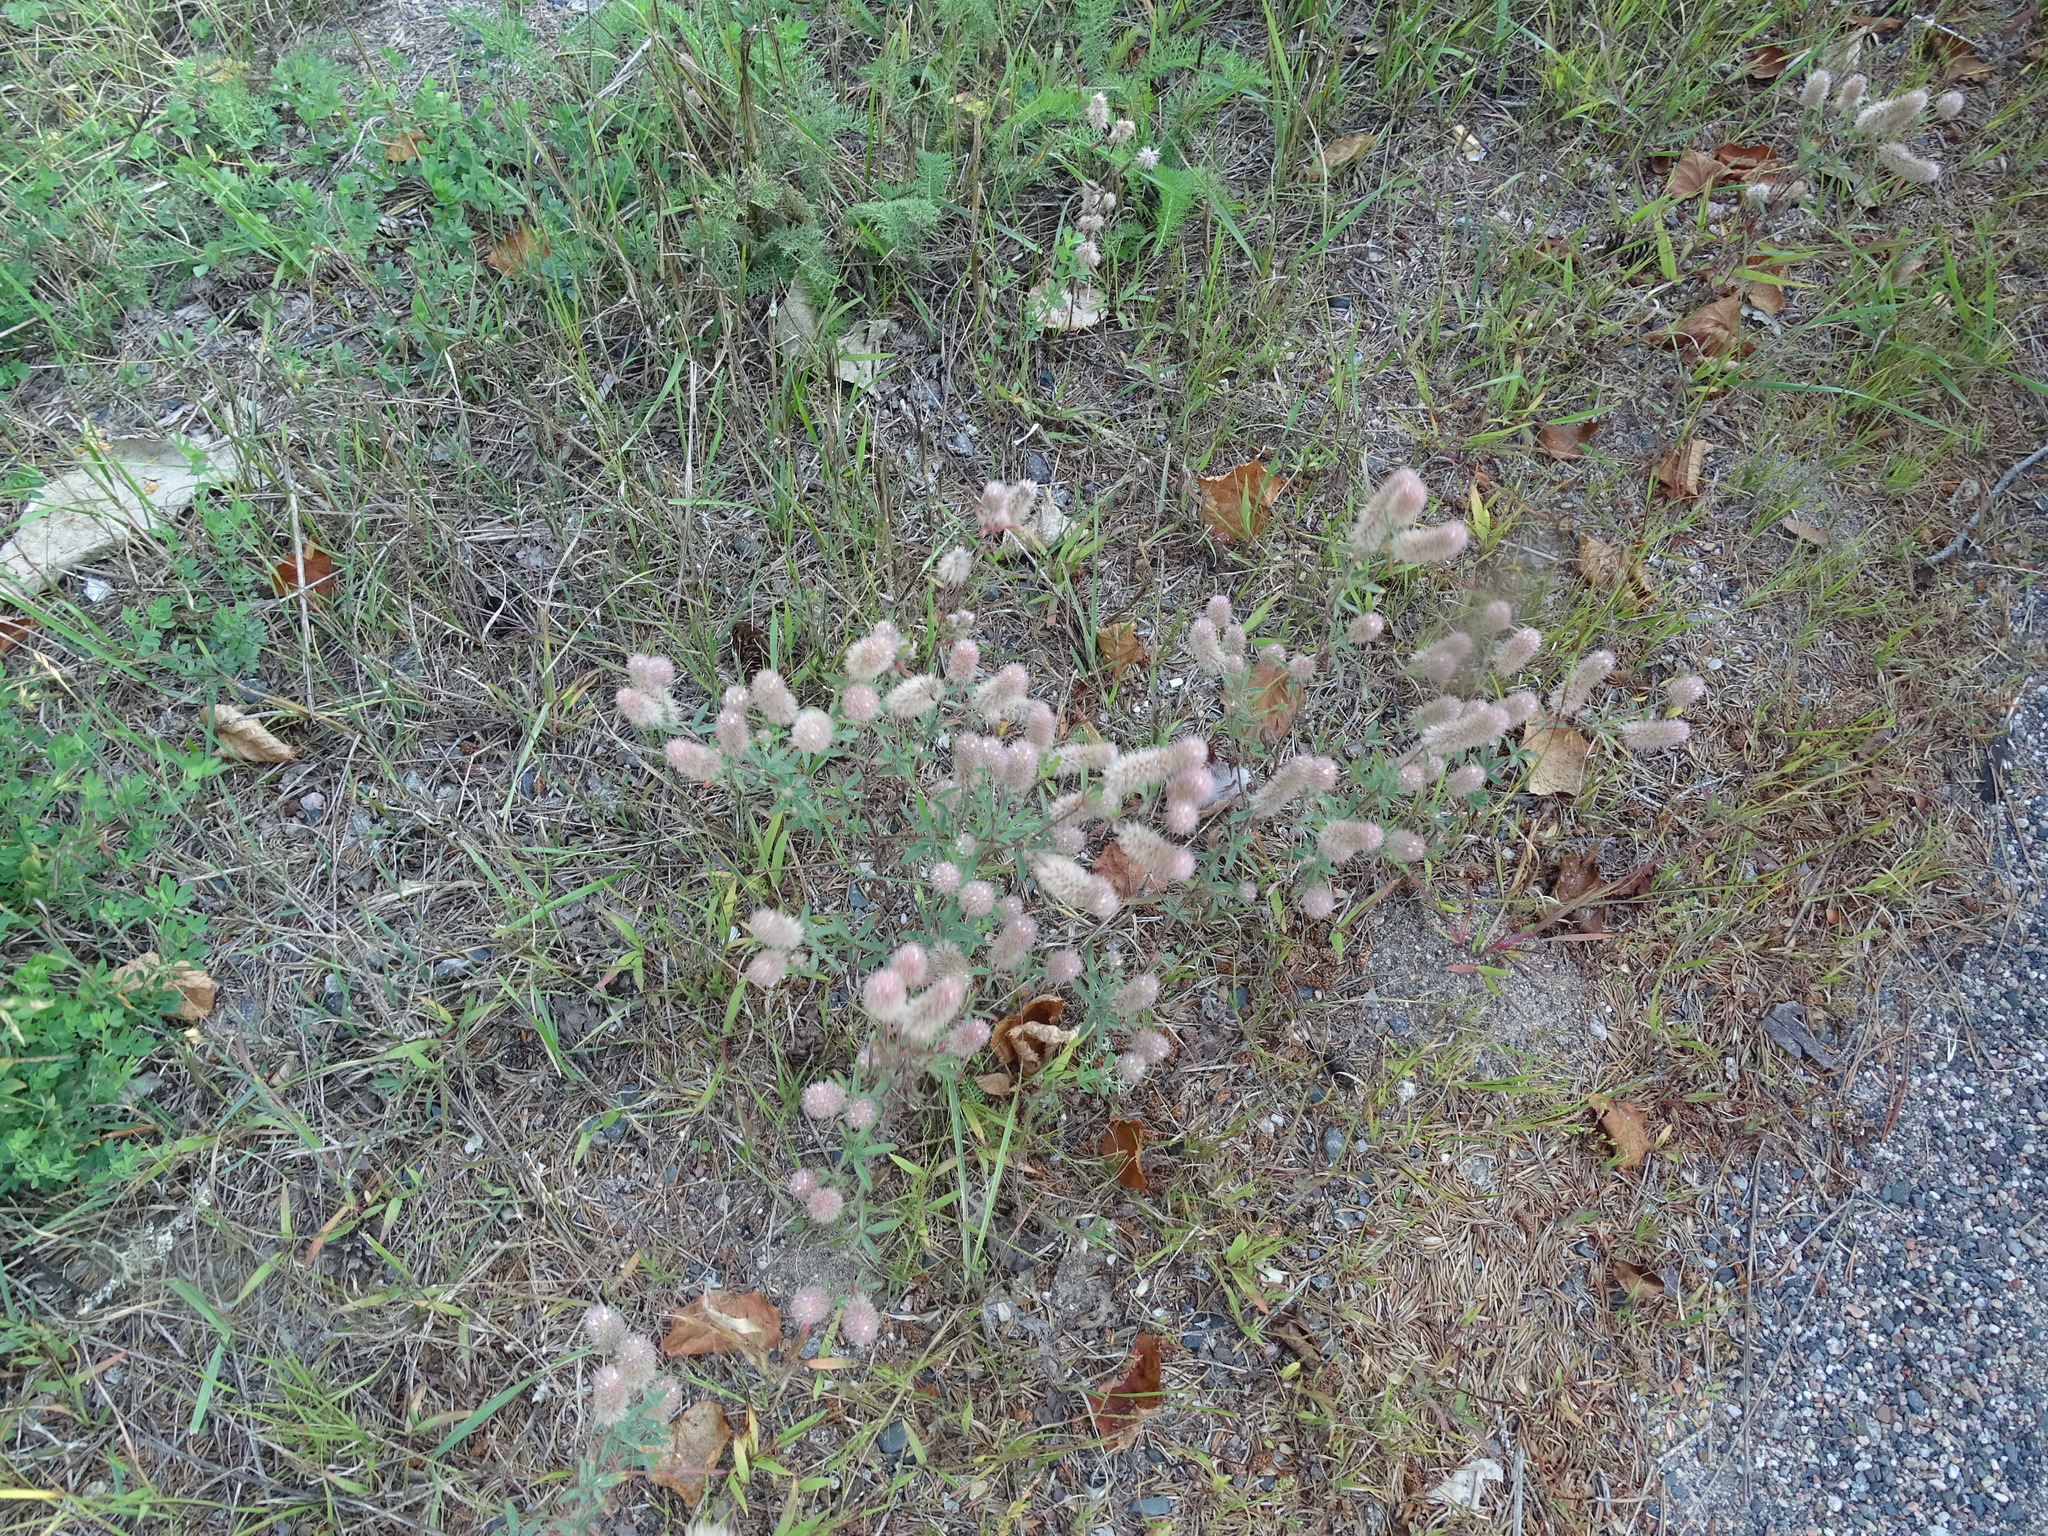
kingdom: Plantae
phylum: Tracheophyta
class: Magnoliopsida
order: Fabales
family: Fabaceae
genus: Trifolium
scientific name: Trifolium arvense
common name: Hare's-foot clover
